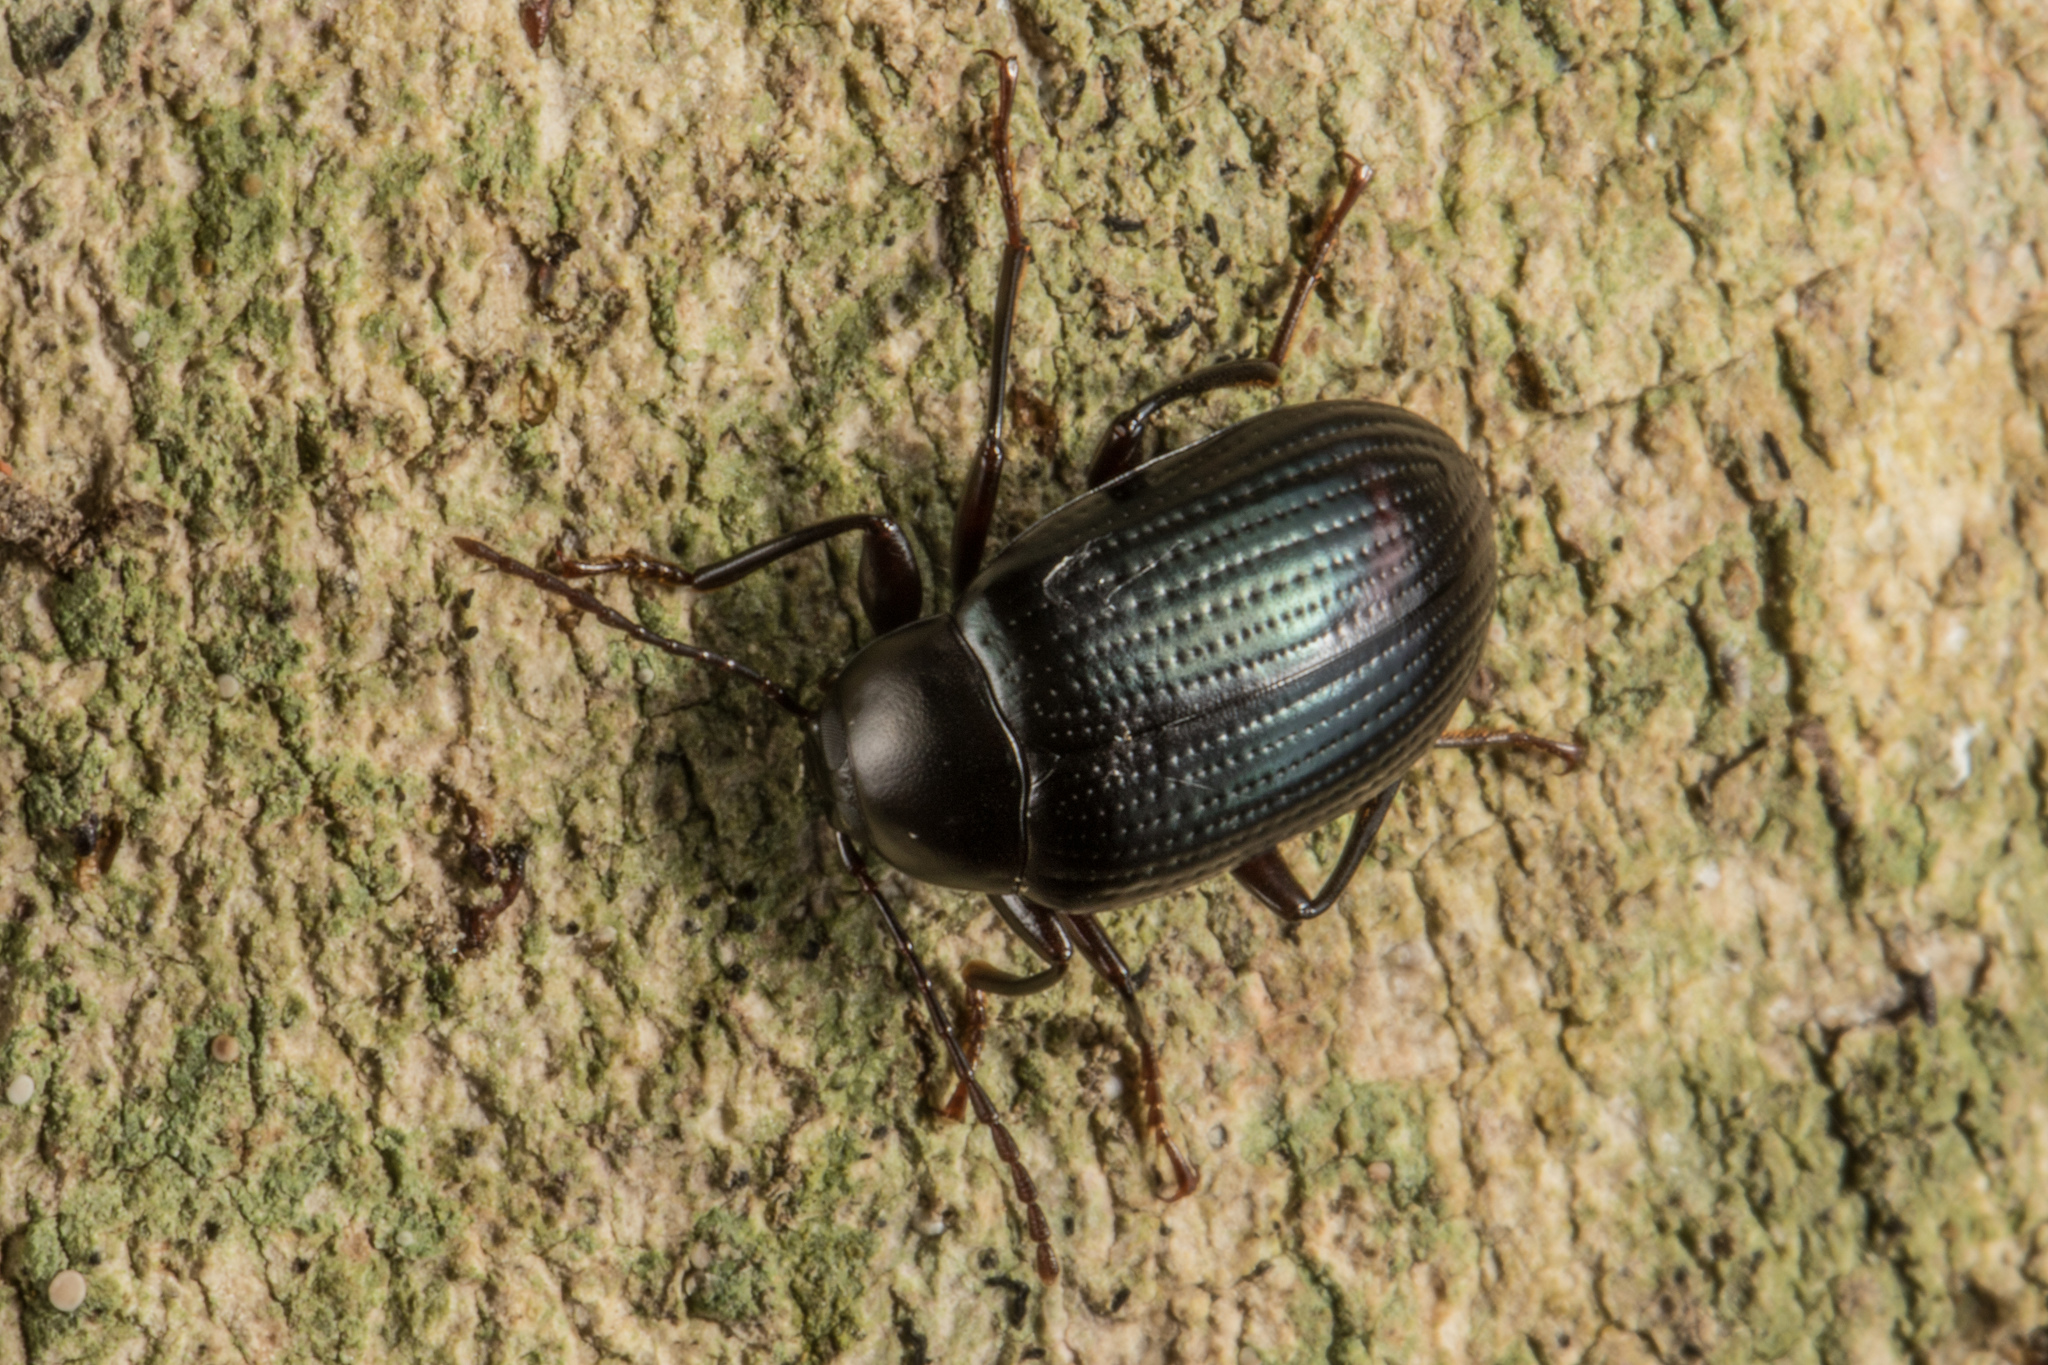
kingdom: Animalia
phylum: Arthropoda
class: Insecta
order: Coleoptera
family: Tenebrionidae
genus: Amarygmus
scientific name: Amarygmus
